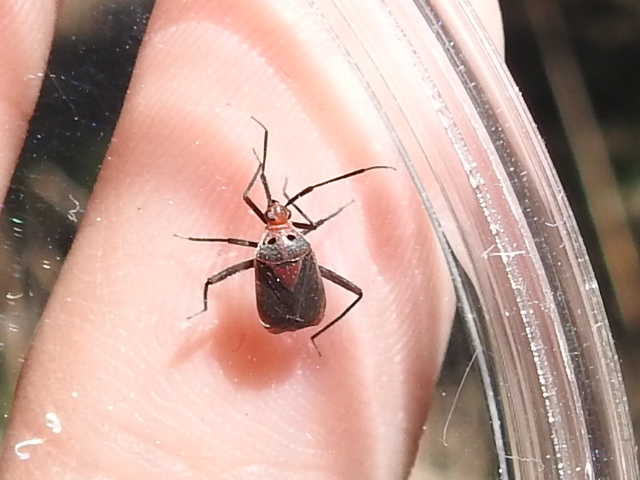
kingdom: Animalia
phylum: Arthropoda
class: Insecta
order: Hemiptera
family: Miridae
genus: Taedia
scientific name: Taedia johnstoni
